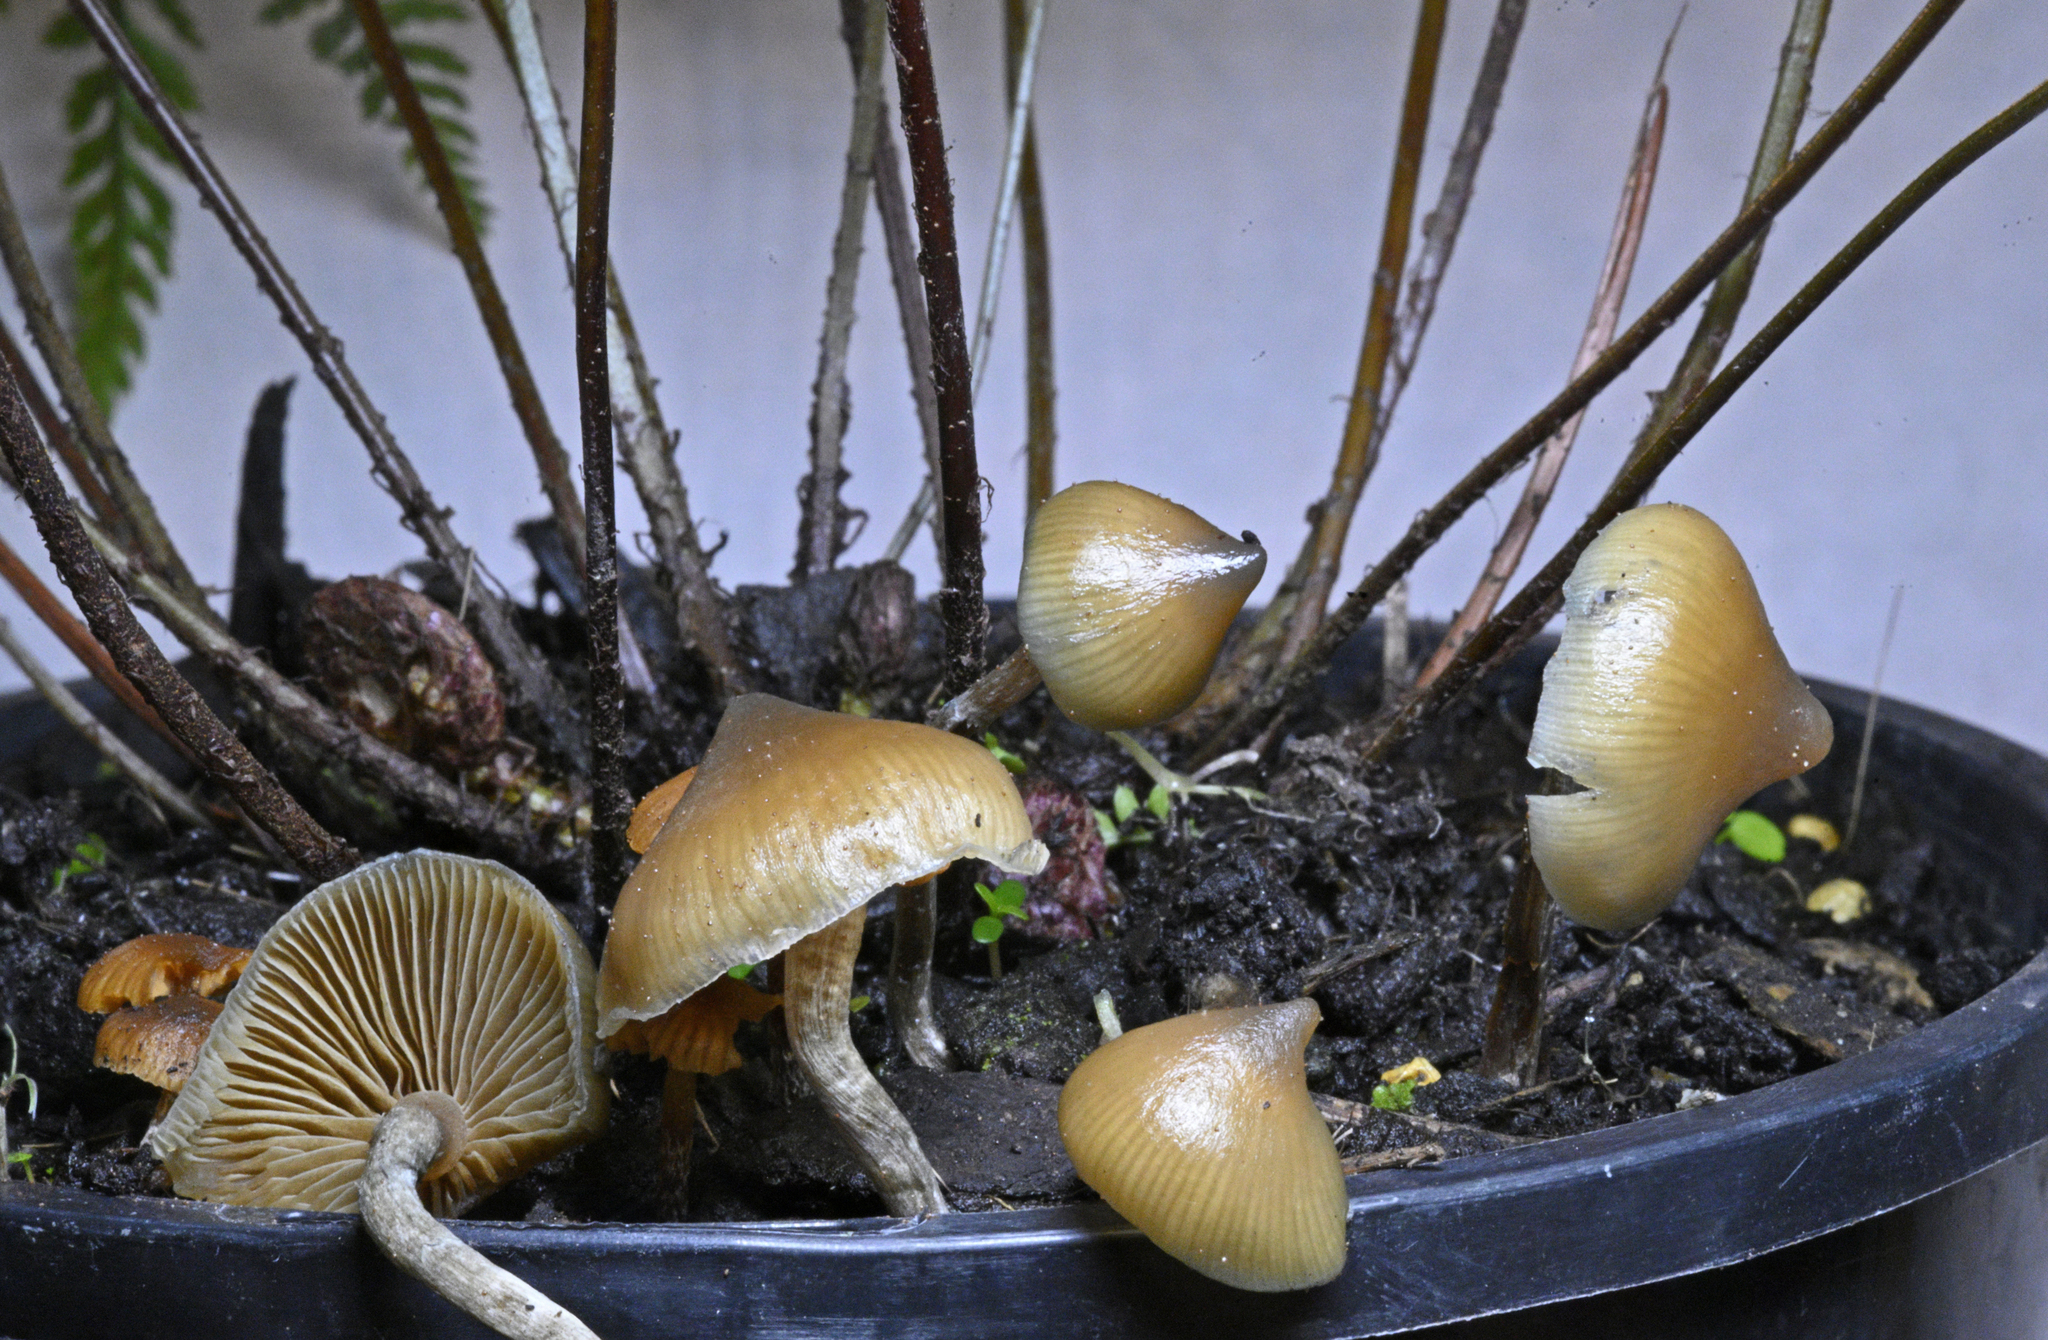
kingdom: Fungi
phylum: Basidiomycota
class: Agaricomycetes
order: Agaricales
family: Hymenogastraceae
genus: Psilocybe
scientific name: Psilocybe angulospora
